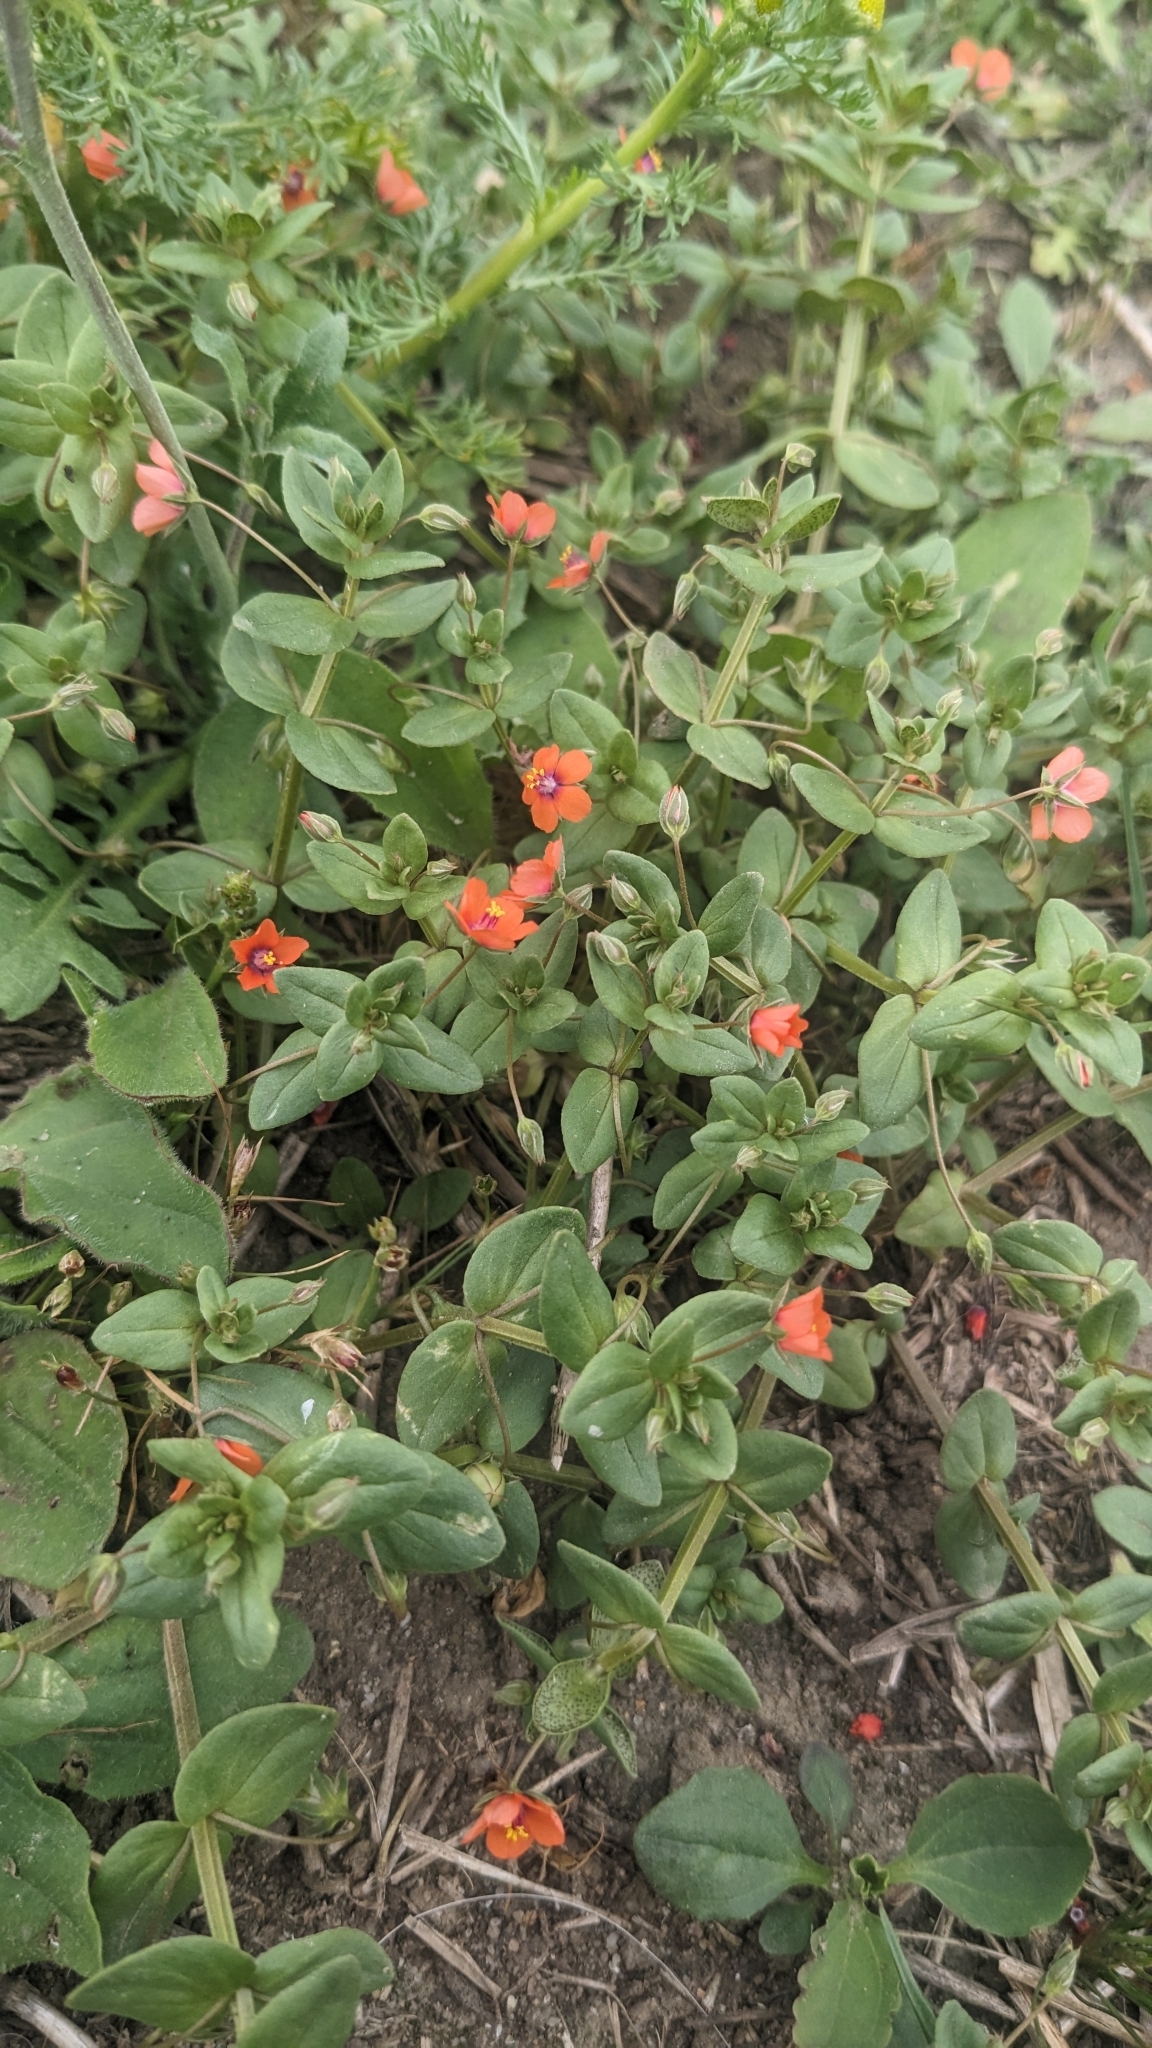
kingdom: Plantae
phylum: Tracheophyta
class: Magnoliopsida
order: Ericales
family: Primulaceae
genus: Lysimachia
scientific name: Lysimachia arvensis
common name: Scarlet pimpernel
